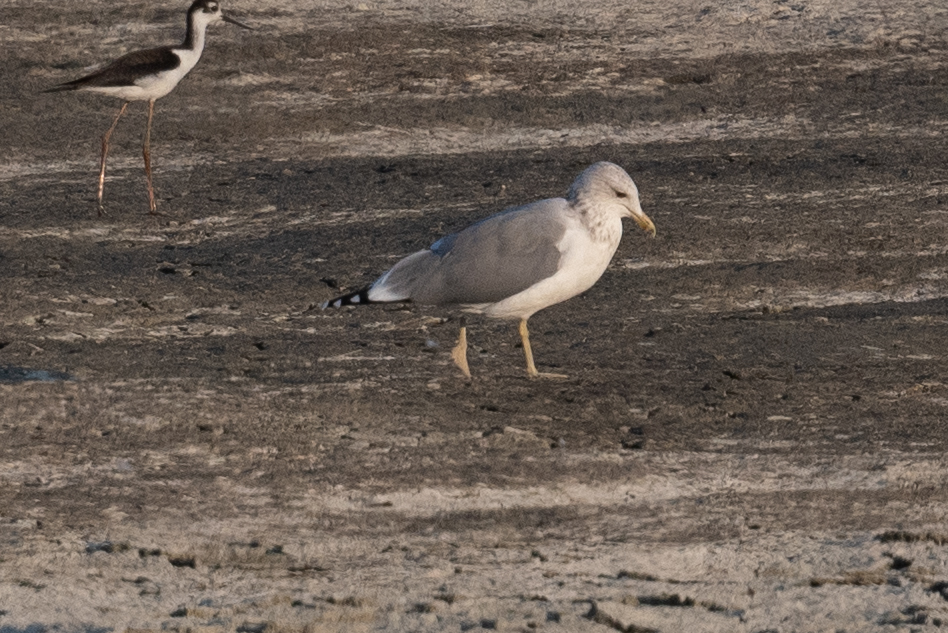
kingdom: Animalia
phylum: Chordata
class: Aves
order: Charadriiformes
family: Laridae
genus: Larus
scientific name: Larus californicus
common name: California gull
